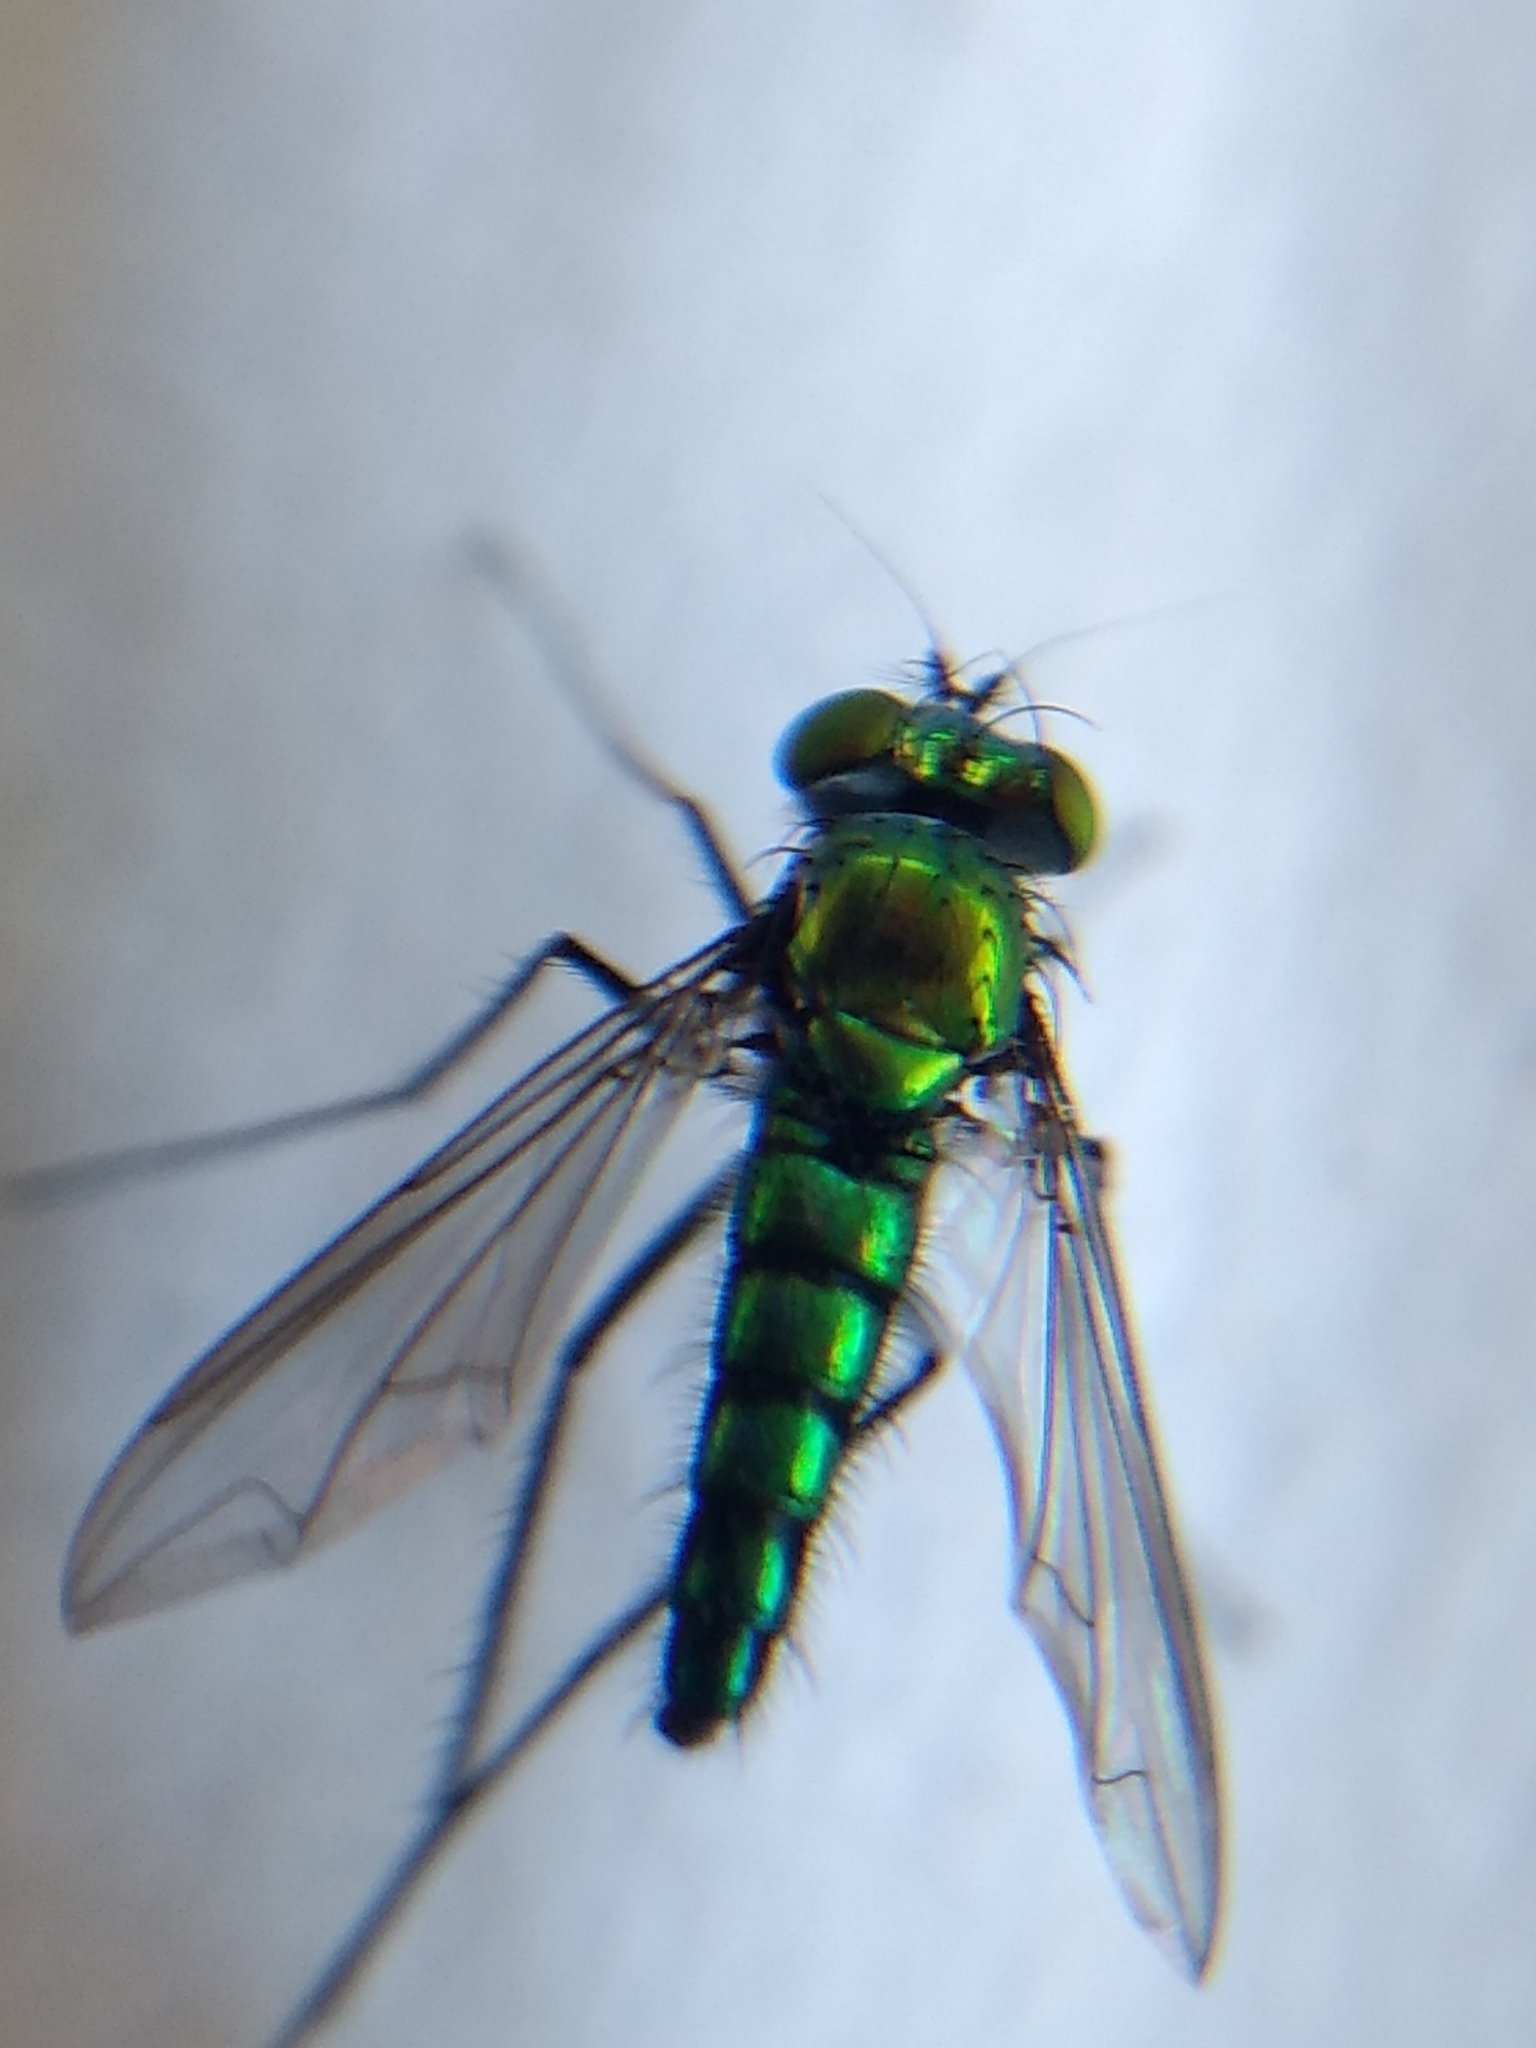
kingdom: Animalia
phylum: Arthropoda
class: Insecta
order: Diptera
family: Dolichopodidae
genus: Condylostylus
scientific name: Condylostylus longicornis
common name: Long-legged fly
